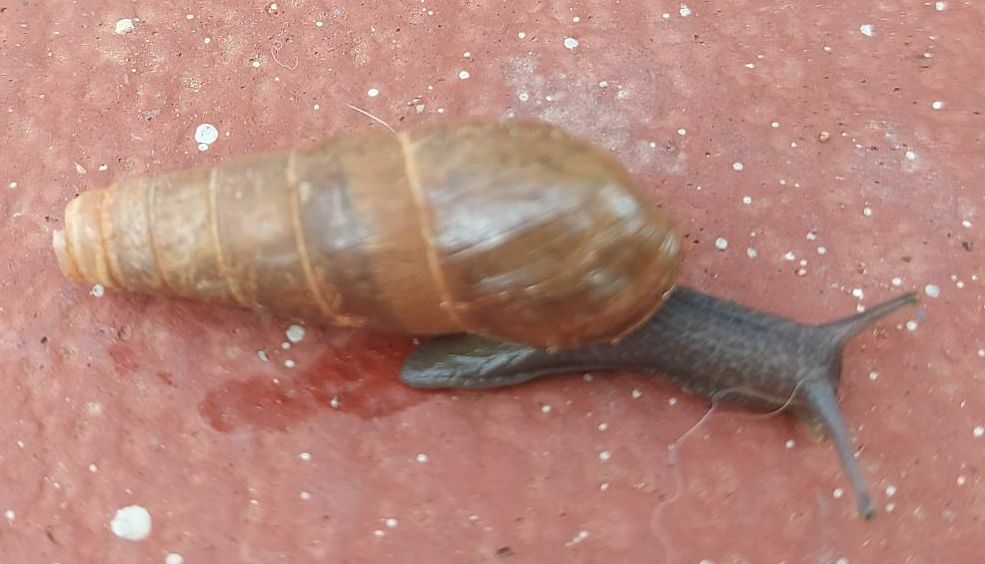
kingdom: Animalia
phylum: Mollusca
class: Gastropoda
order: Stylommatophora
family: Achatinidae
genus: Rumina
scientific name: Rumina decollata
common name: Decollate snail
